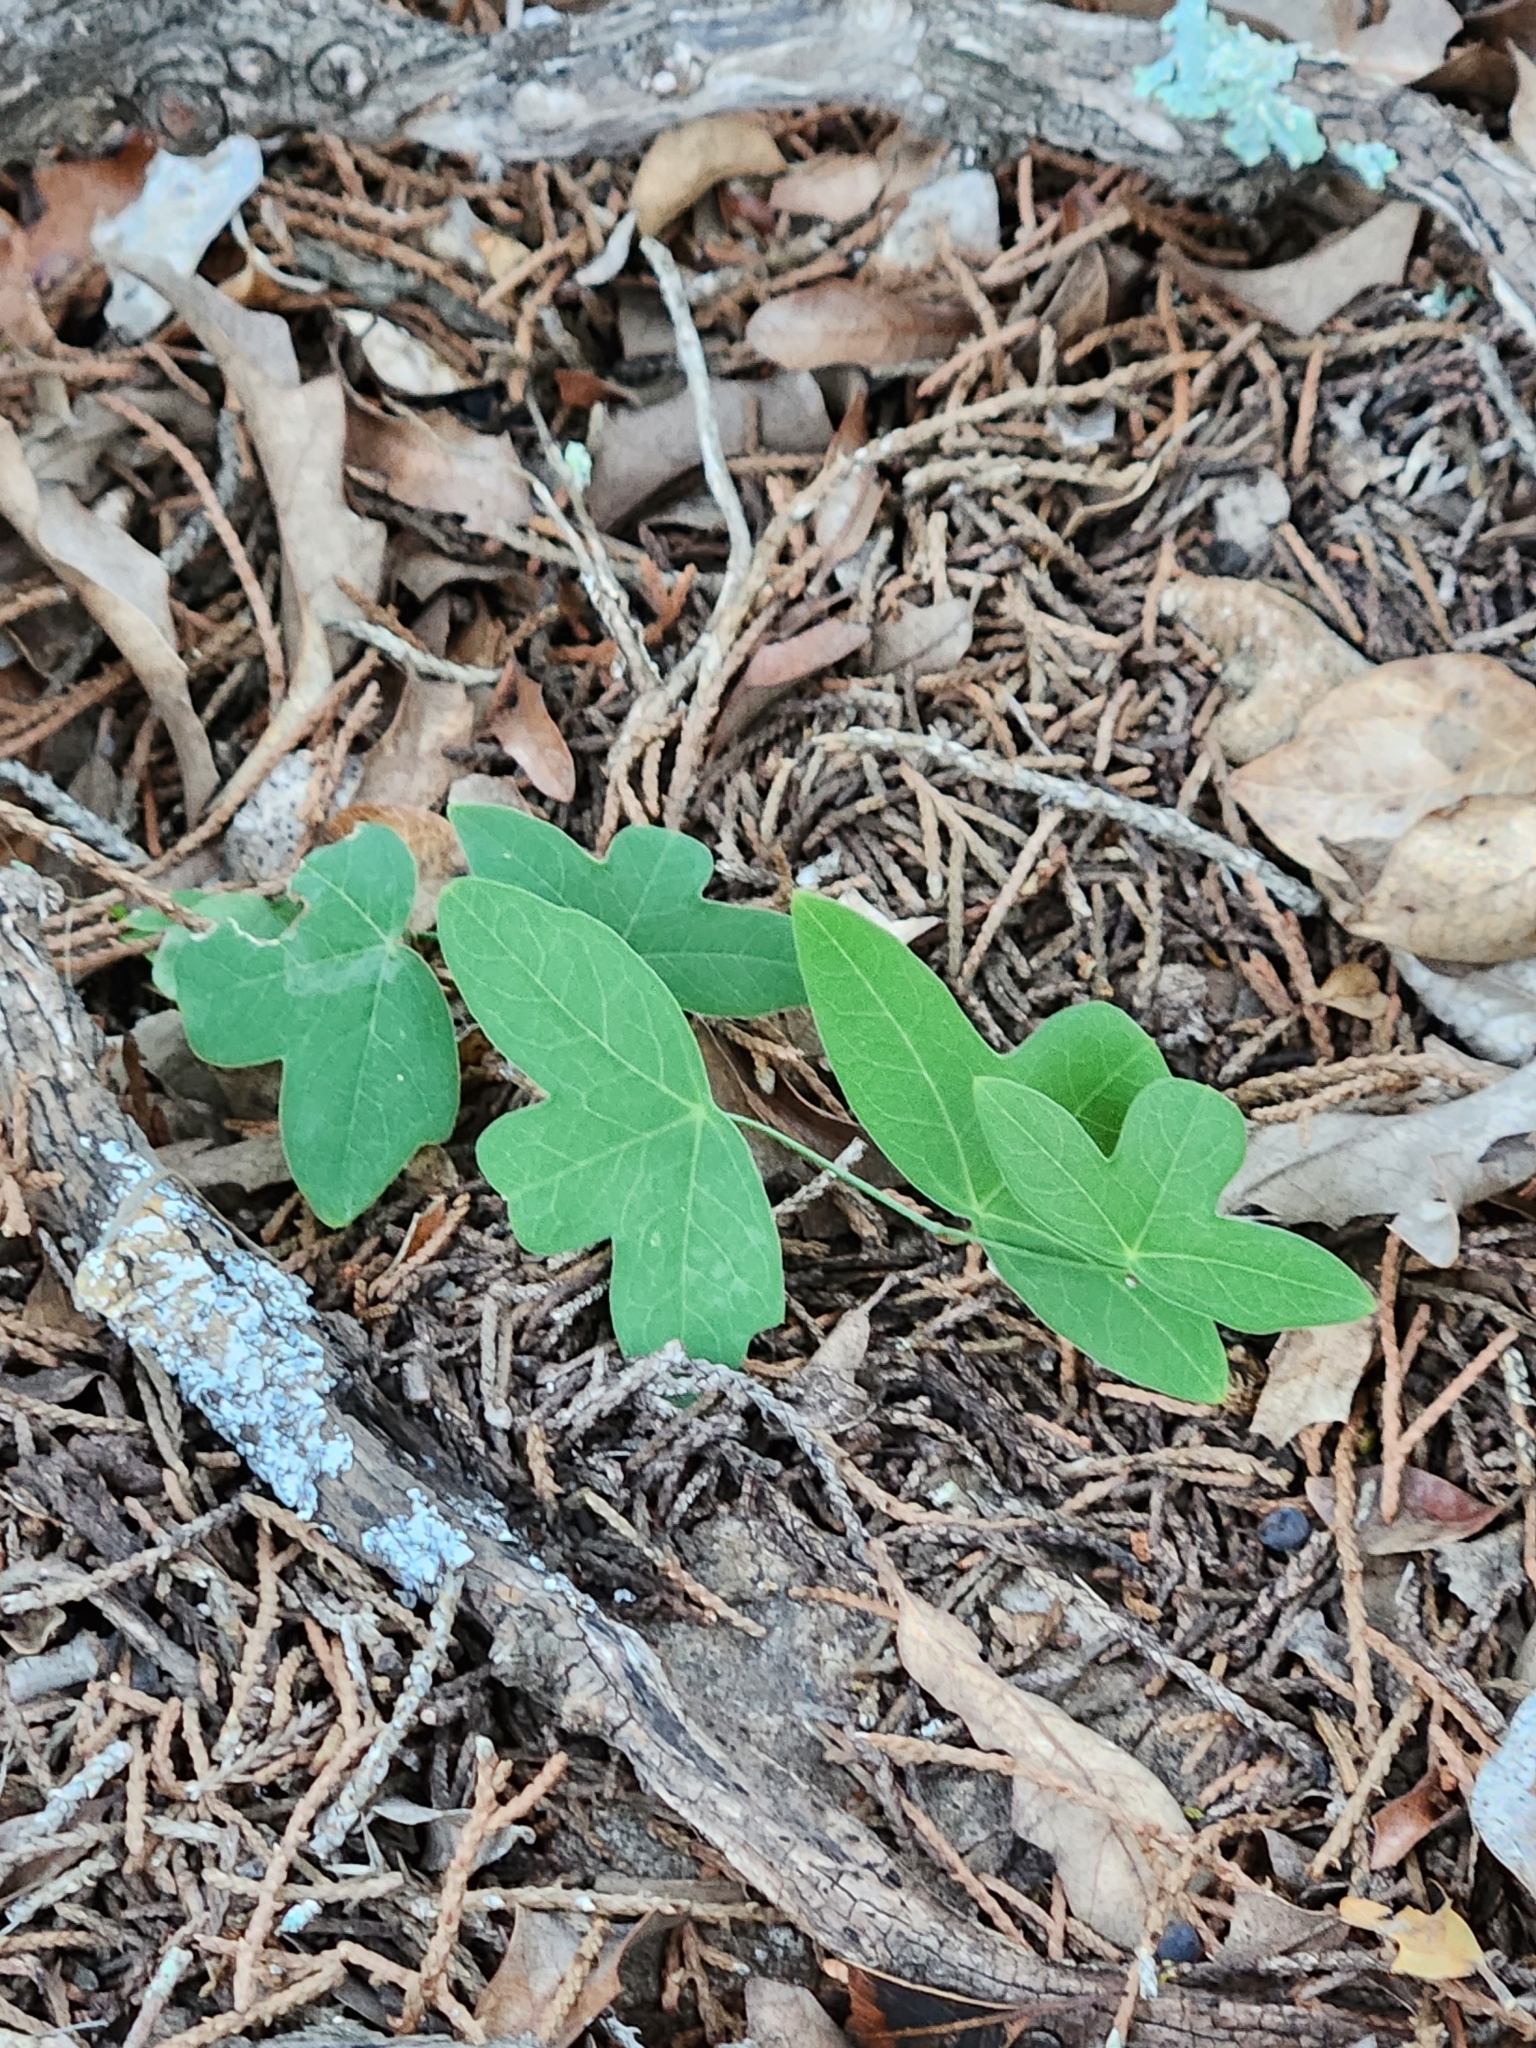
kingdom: Plantae
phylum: Tracheophyta
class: Magnoliopsida
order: Malpighiales
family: Passifloraceae
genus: Passiflora
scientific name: Passiflora tenuiloba
